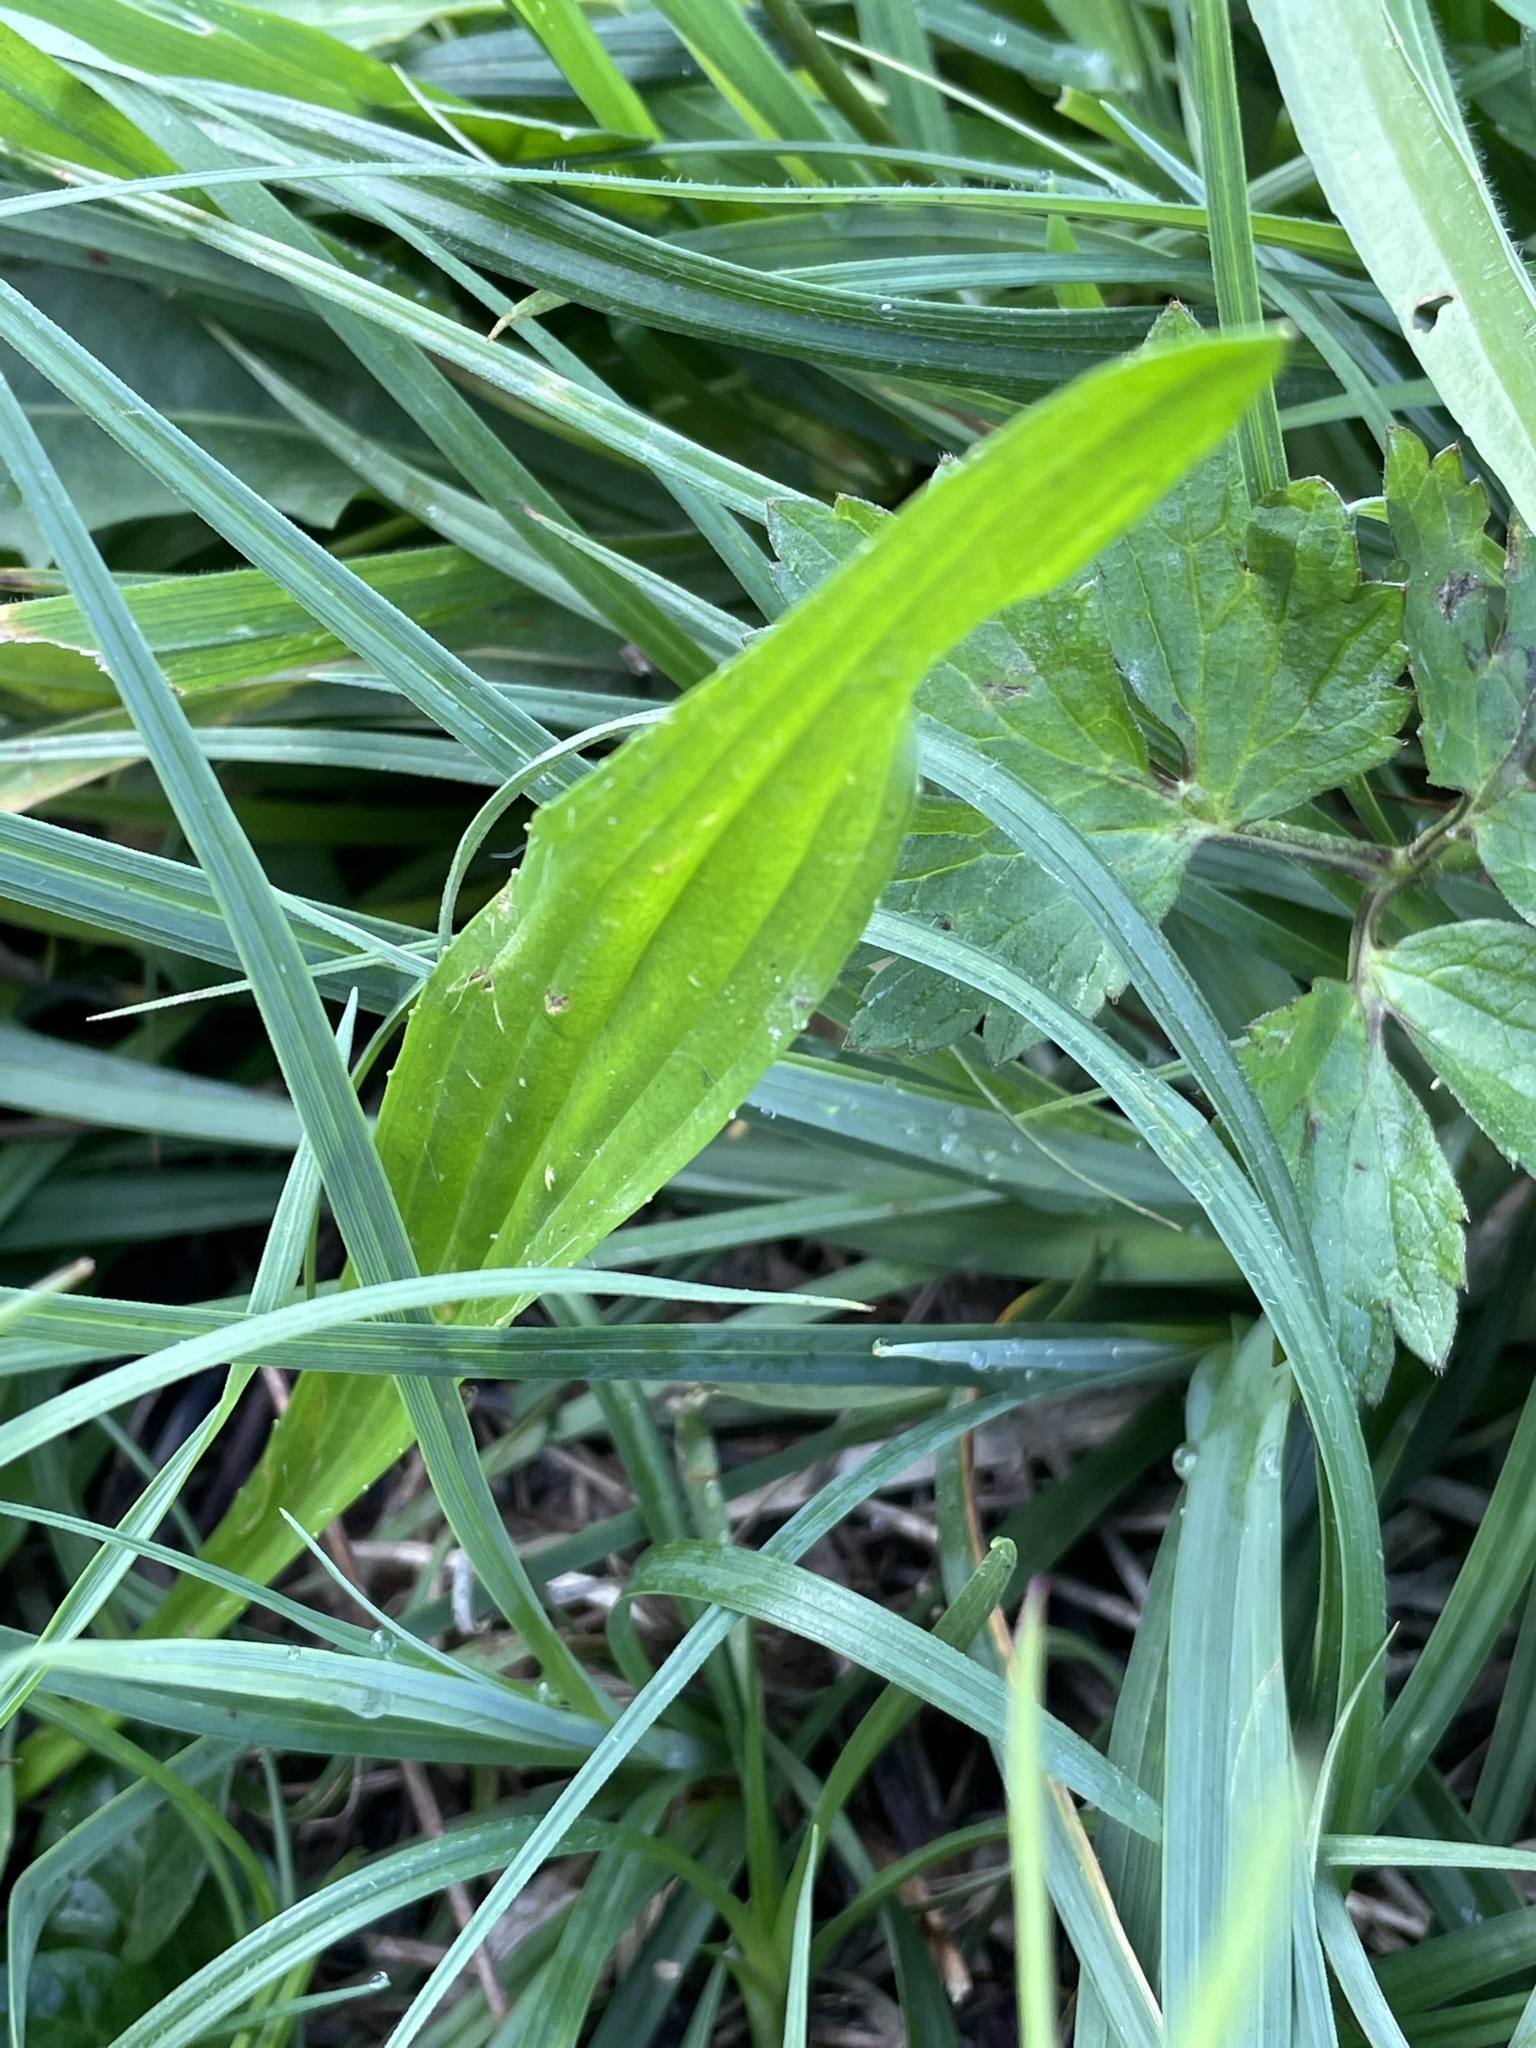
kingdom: Plantae
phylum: Tracheophyta
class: Magnoliopsida
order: Lamiales
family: Plantaginaceae
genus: Plantago
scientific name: Plantago lanceolata
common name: Ribwort plantain
